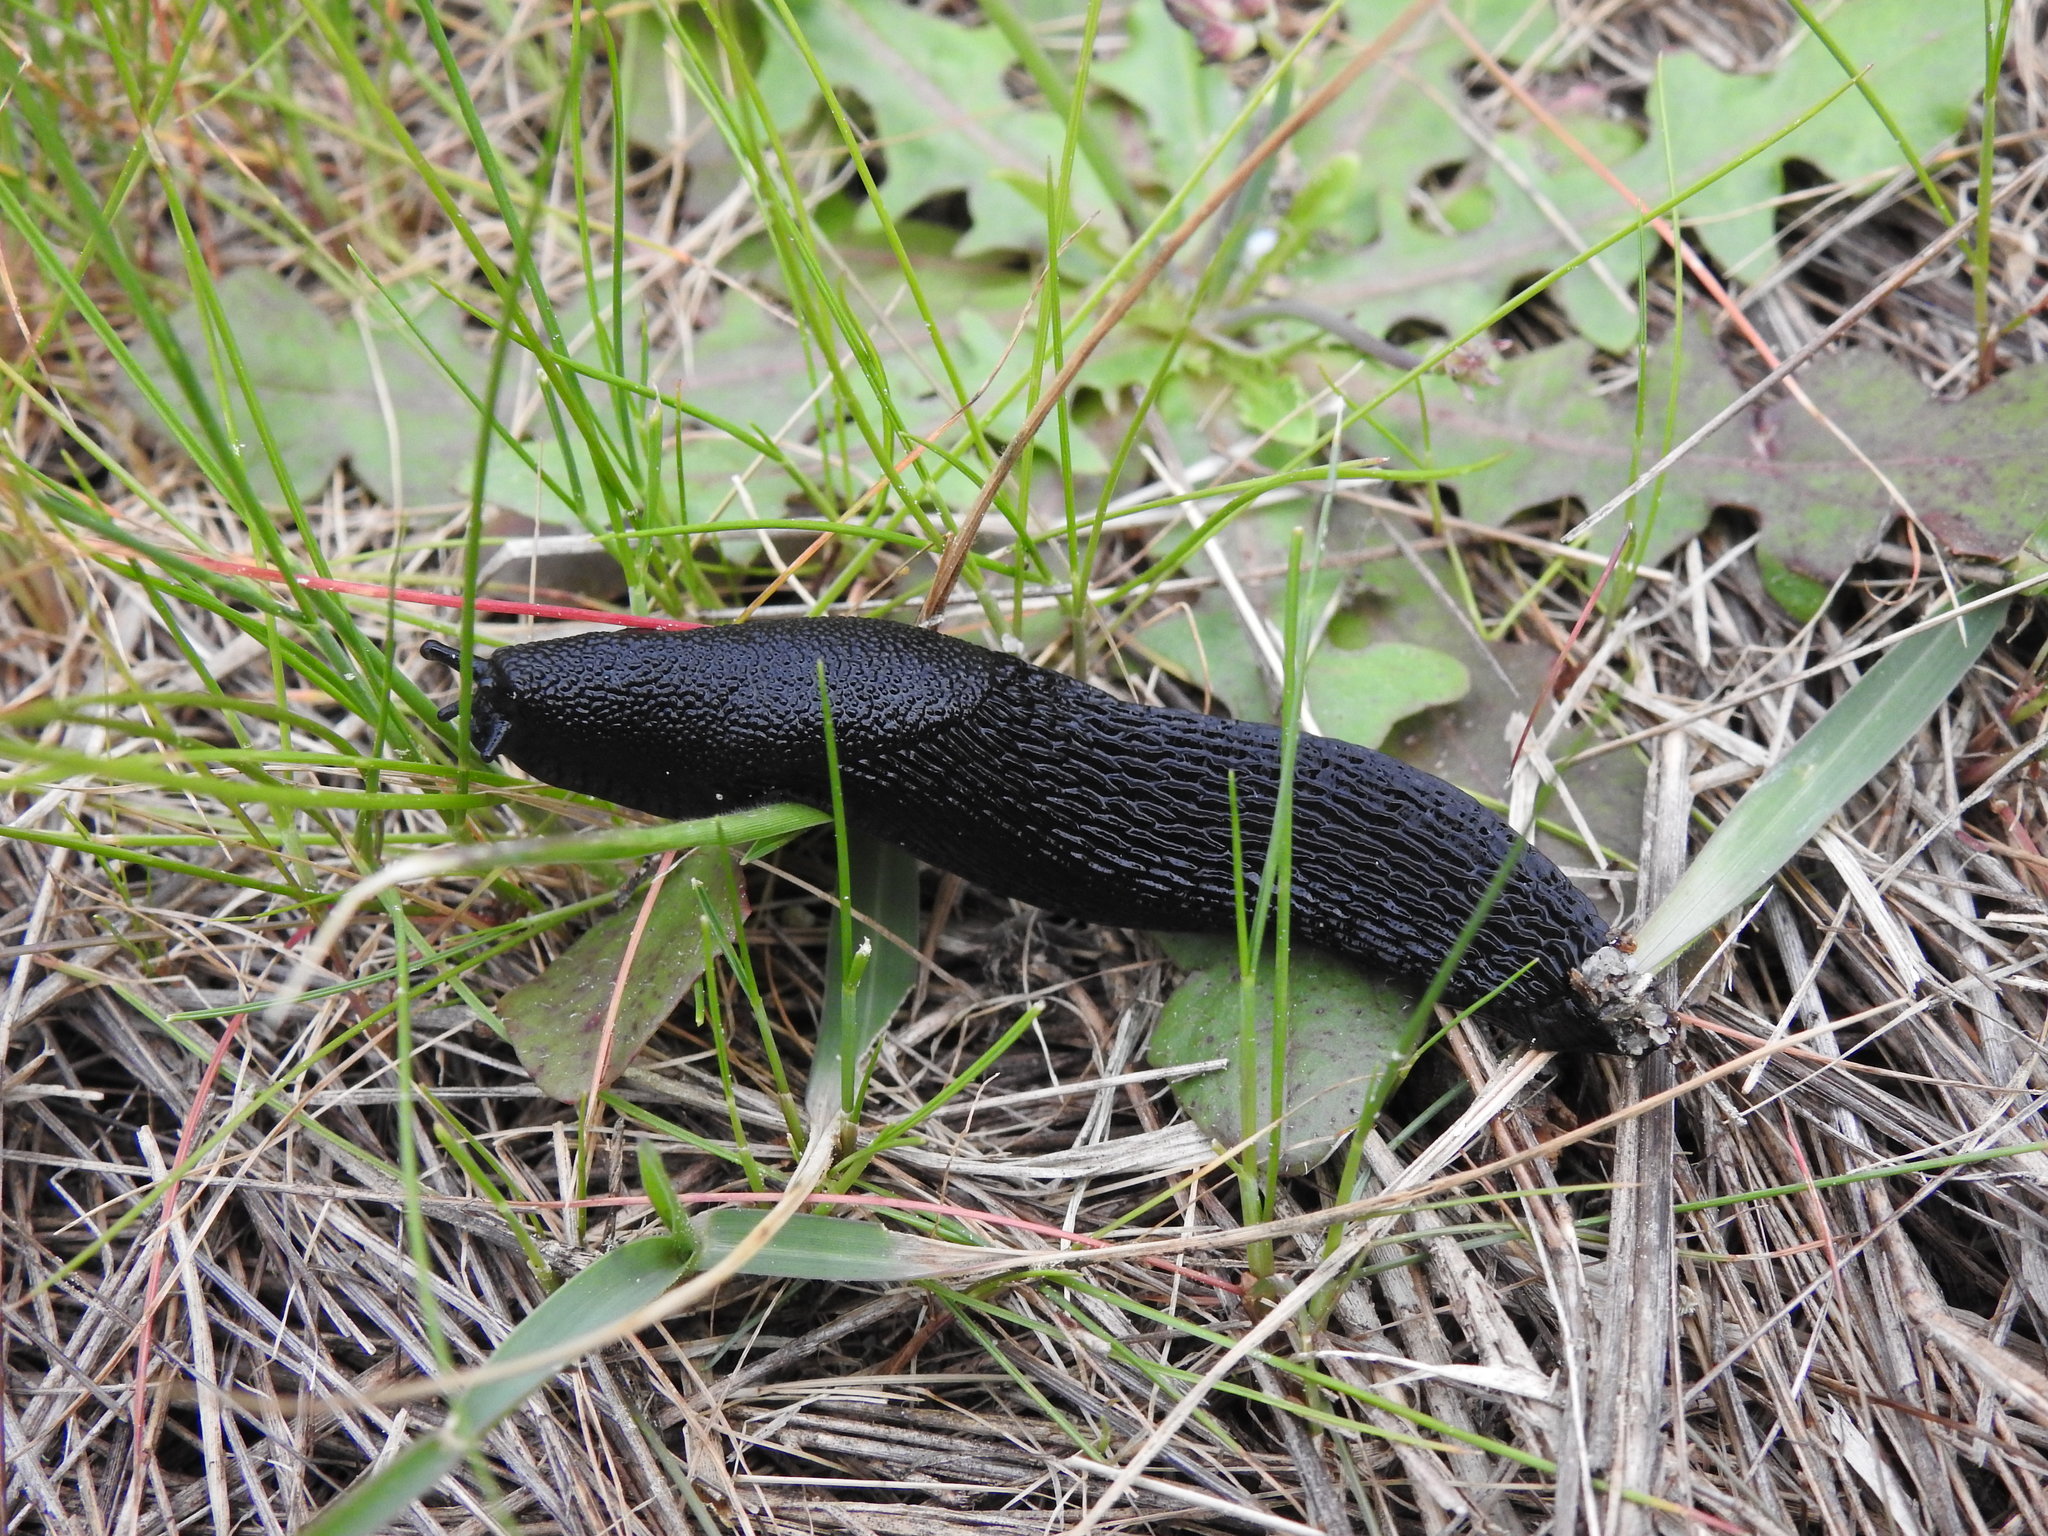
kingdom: Animalia
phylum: Mollusca
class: Gastropoda
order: Stylommatophora
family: Arionidae
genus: Arion
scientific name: Arion ater
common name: Black arion
